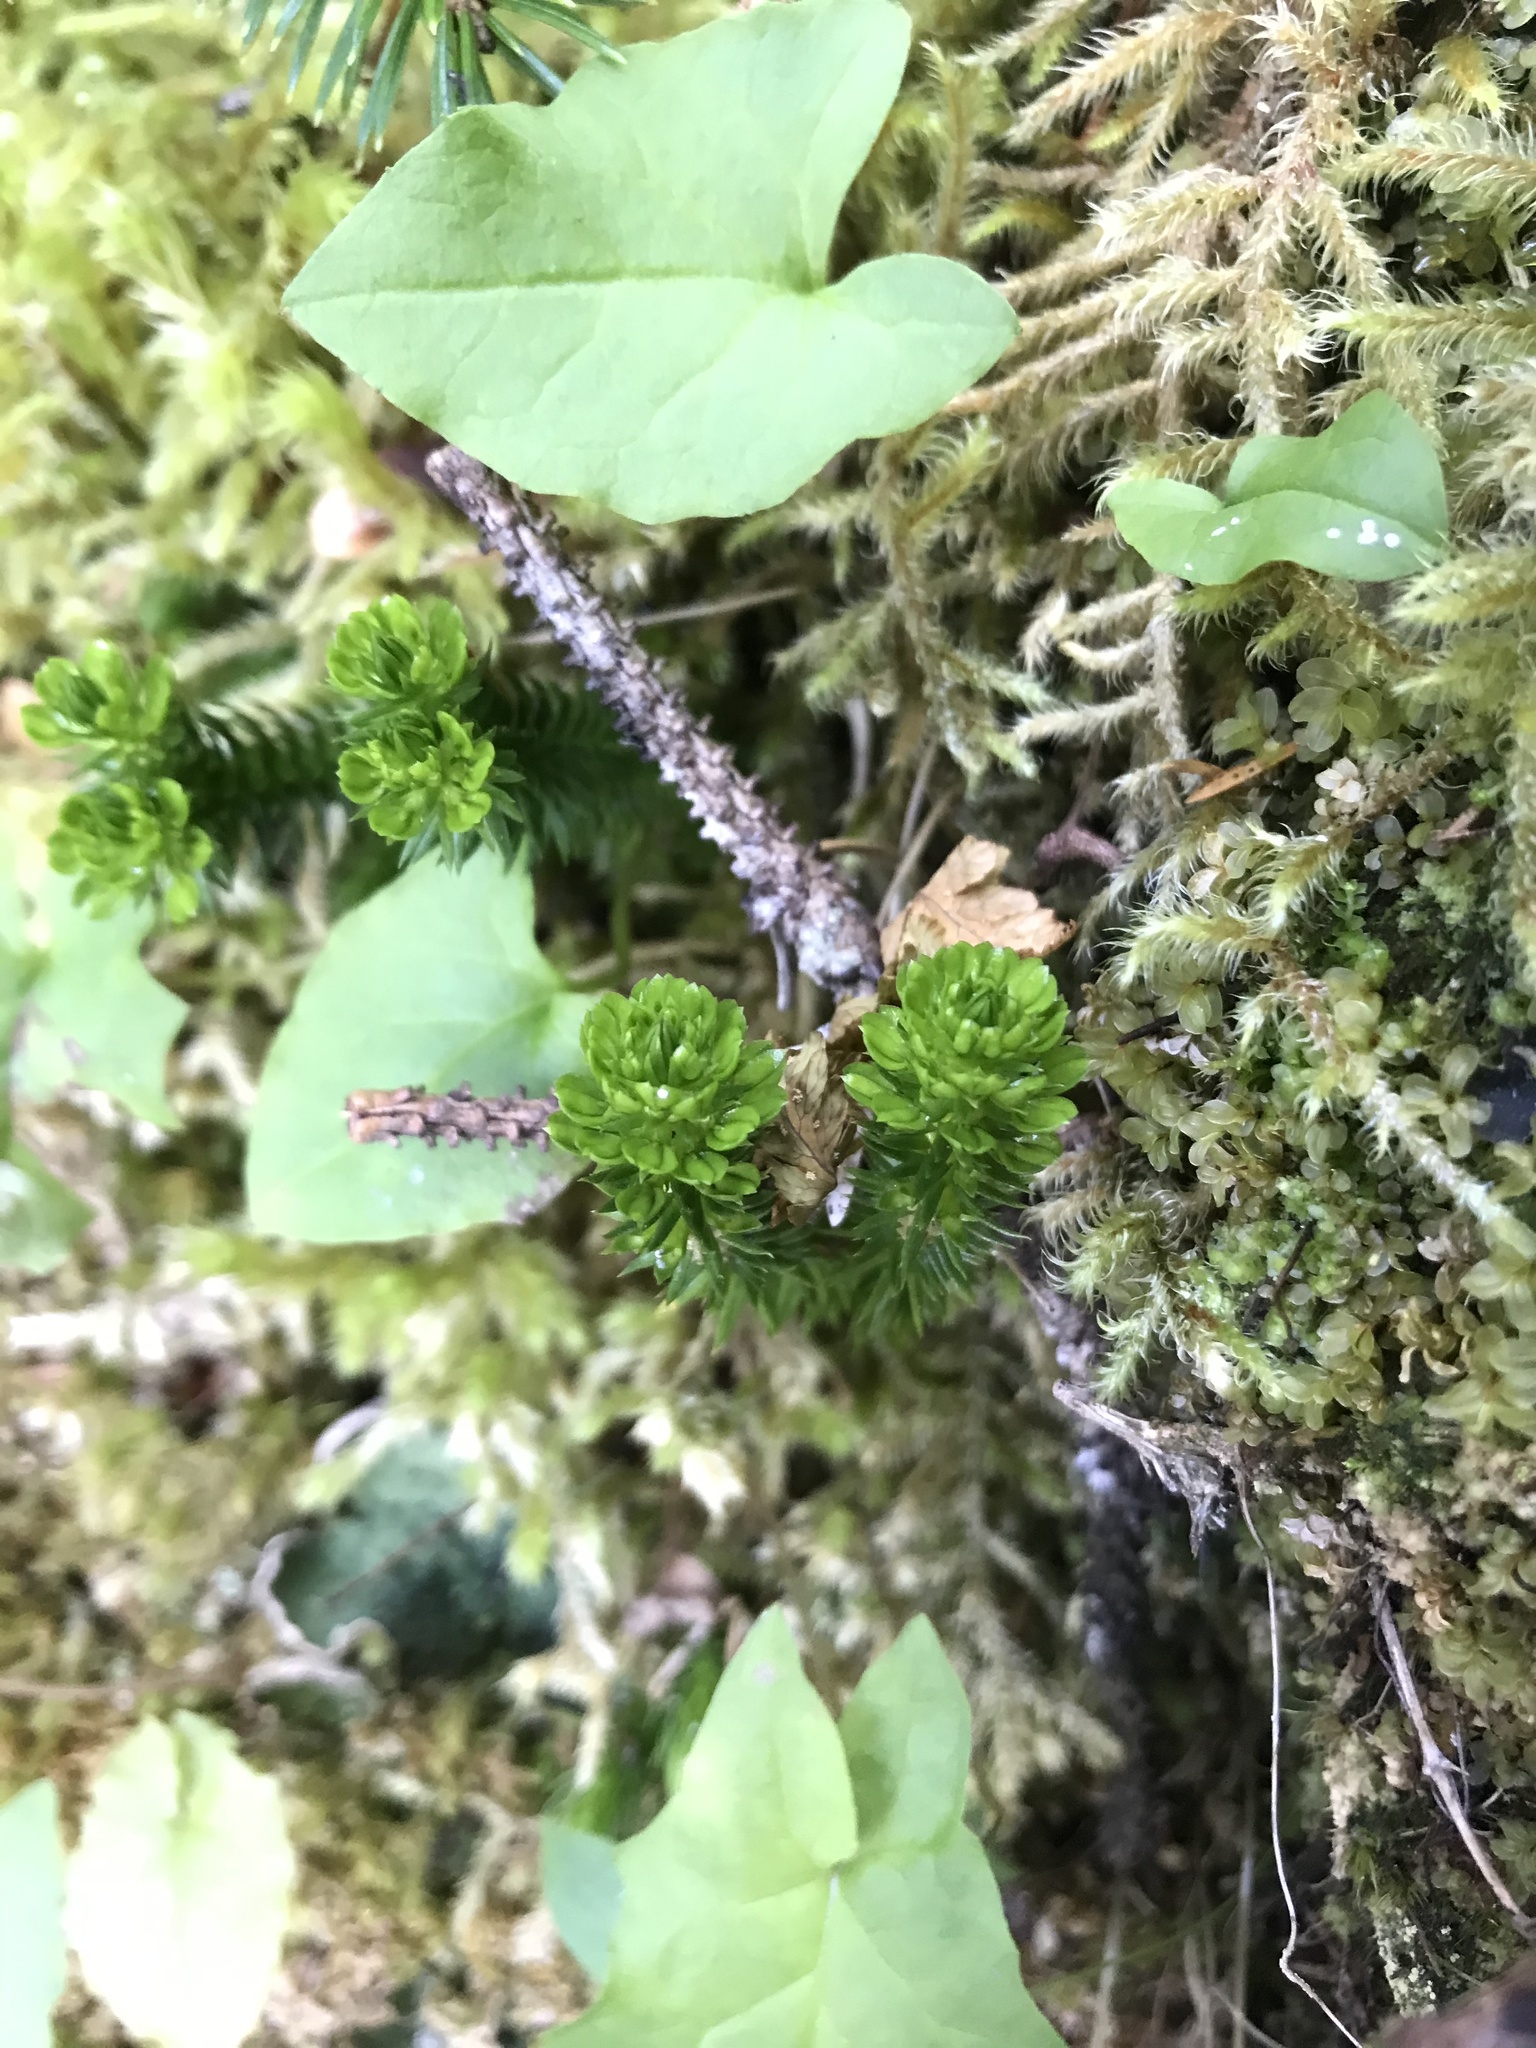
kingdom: Plantae
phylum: Tracheophyta
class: Lycopodiopsida
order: Lycopodiales
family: Lycopodiaceae
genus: Huperzia
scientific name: Huperzia miyoshiana
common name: Chinese clubmoss
